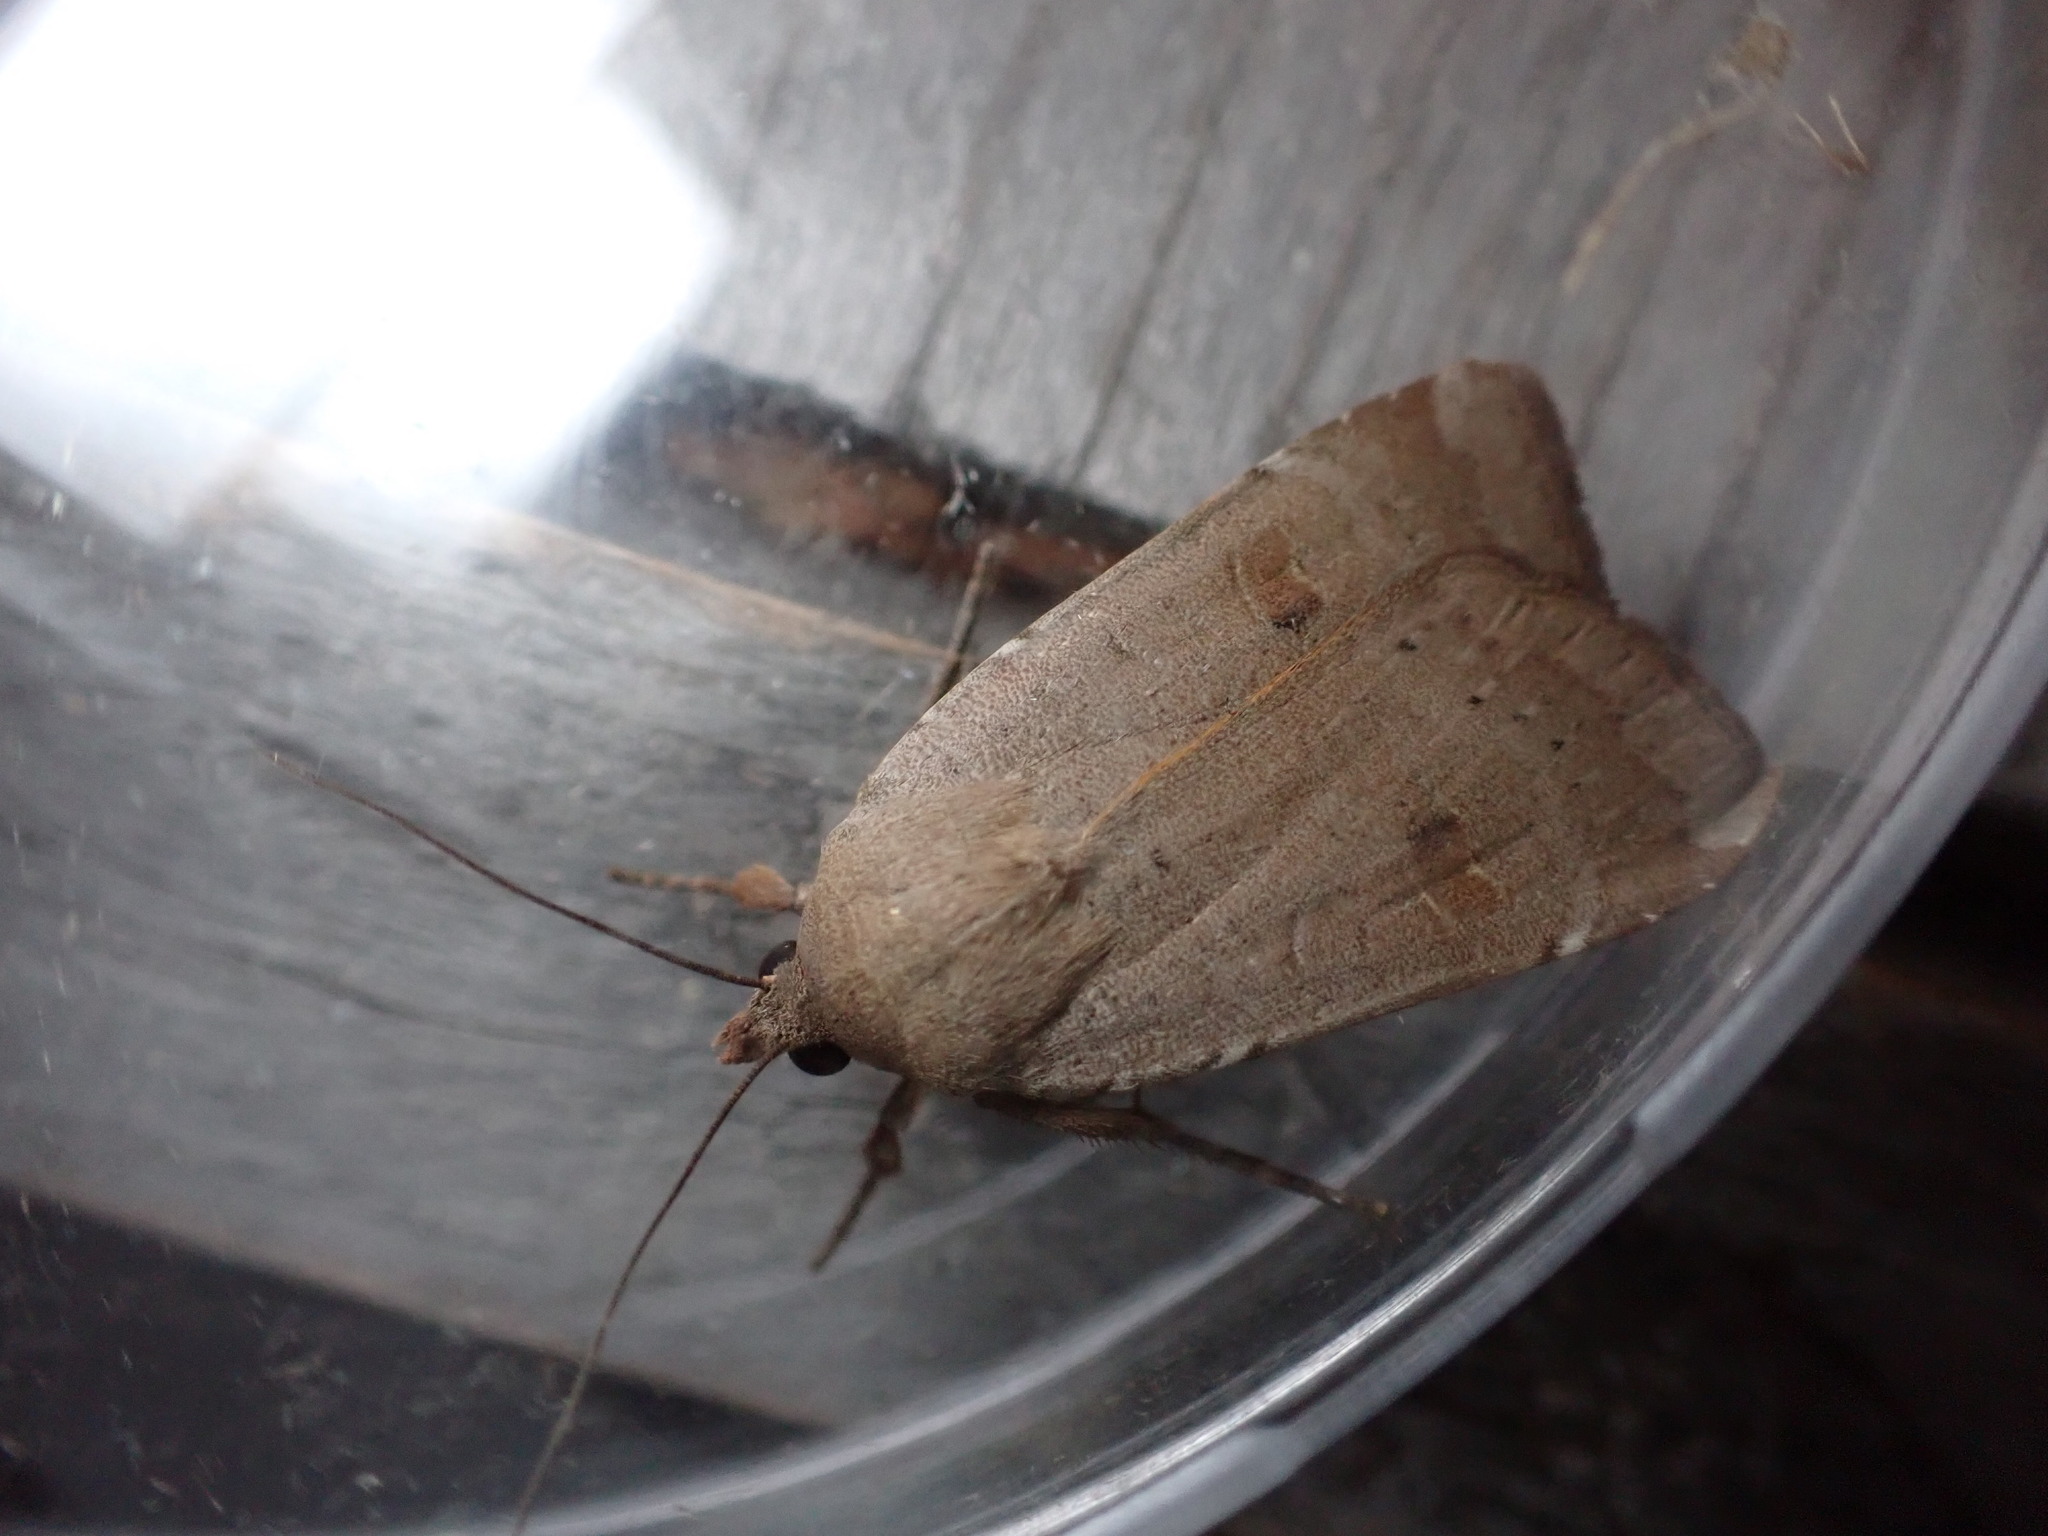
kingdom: Animalia
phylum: Arthropoda
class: Insecta
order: Lepidoptera
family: Noctuidae
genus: Noctua
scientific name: Noctua comes
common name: Lesser yellow underwing
